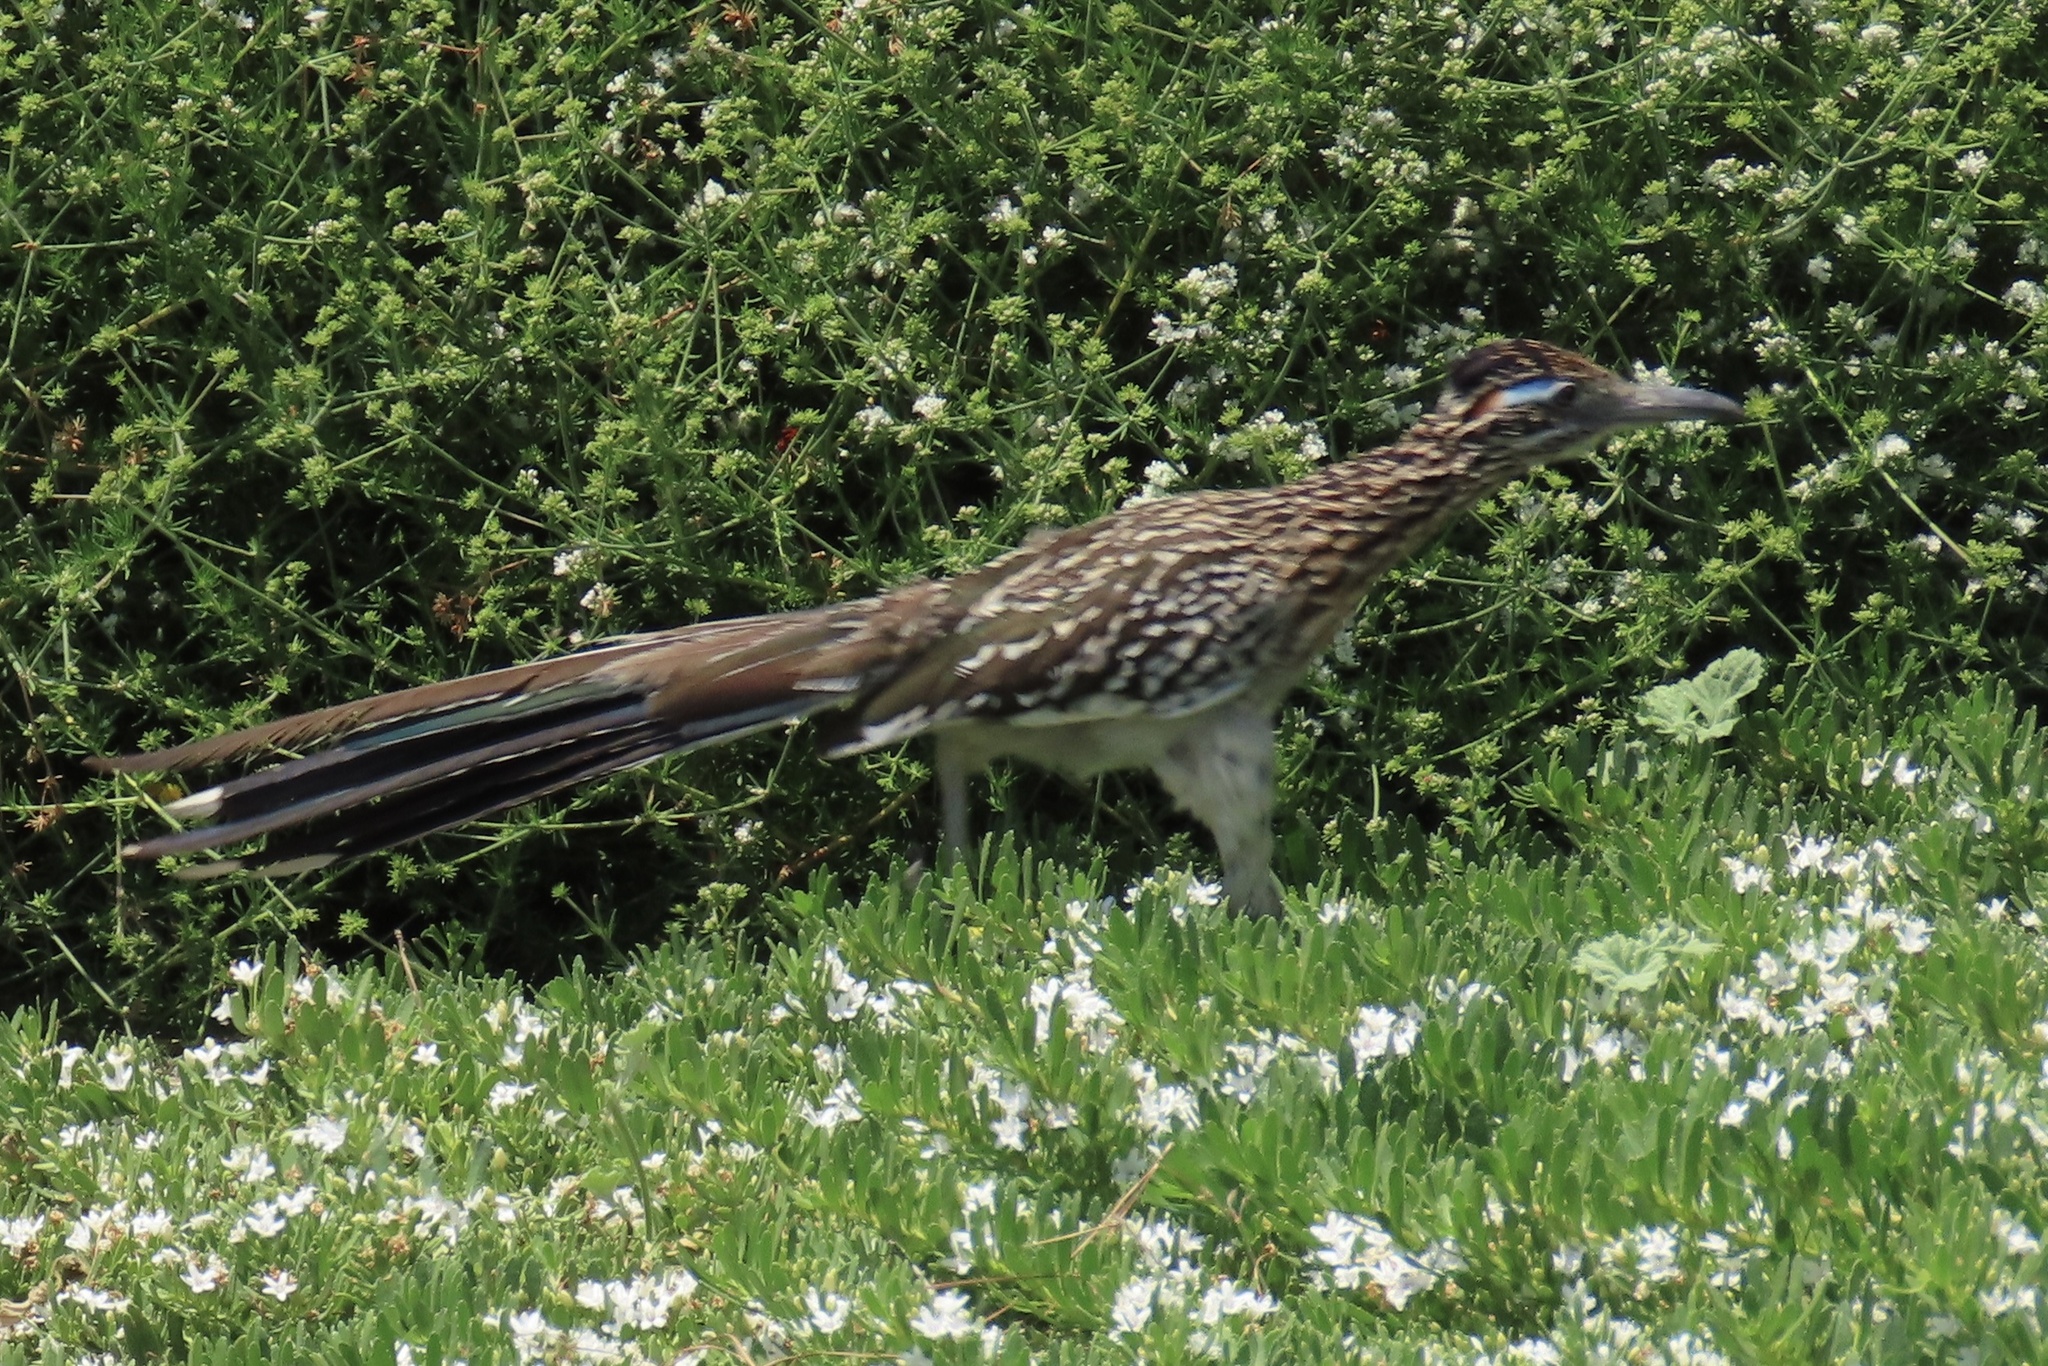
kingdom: Animalia
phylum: Chordata
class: Aves
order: Cuculiformes
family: Cuculidae
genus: Geococcyx
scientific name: Geococcyx californianus
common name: Greater roadrunner
